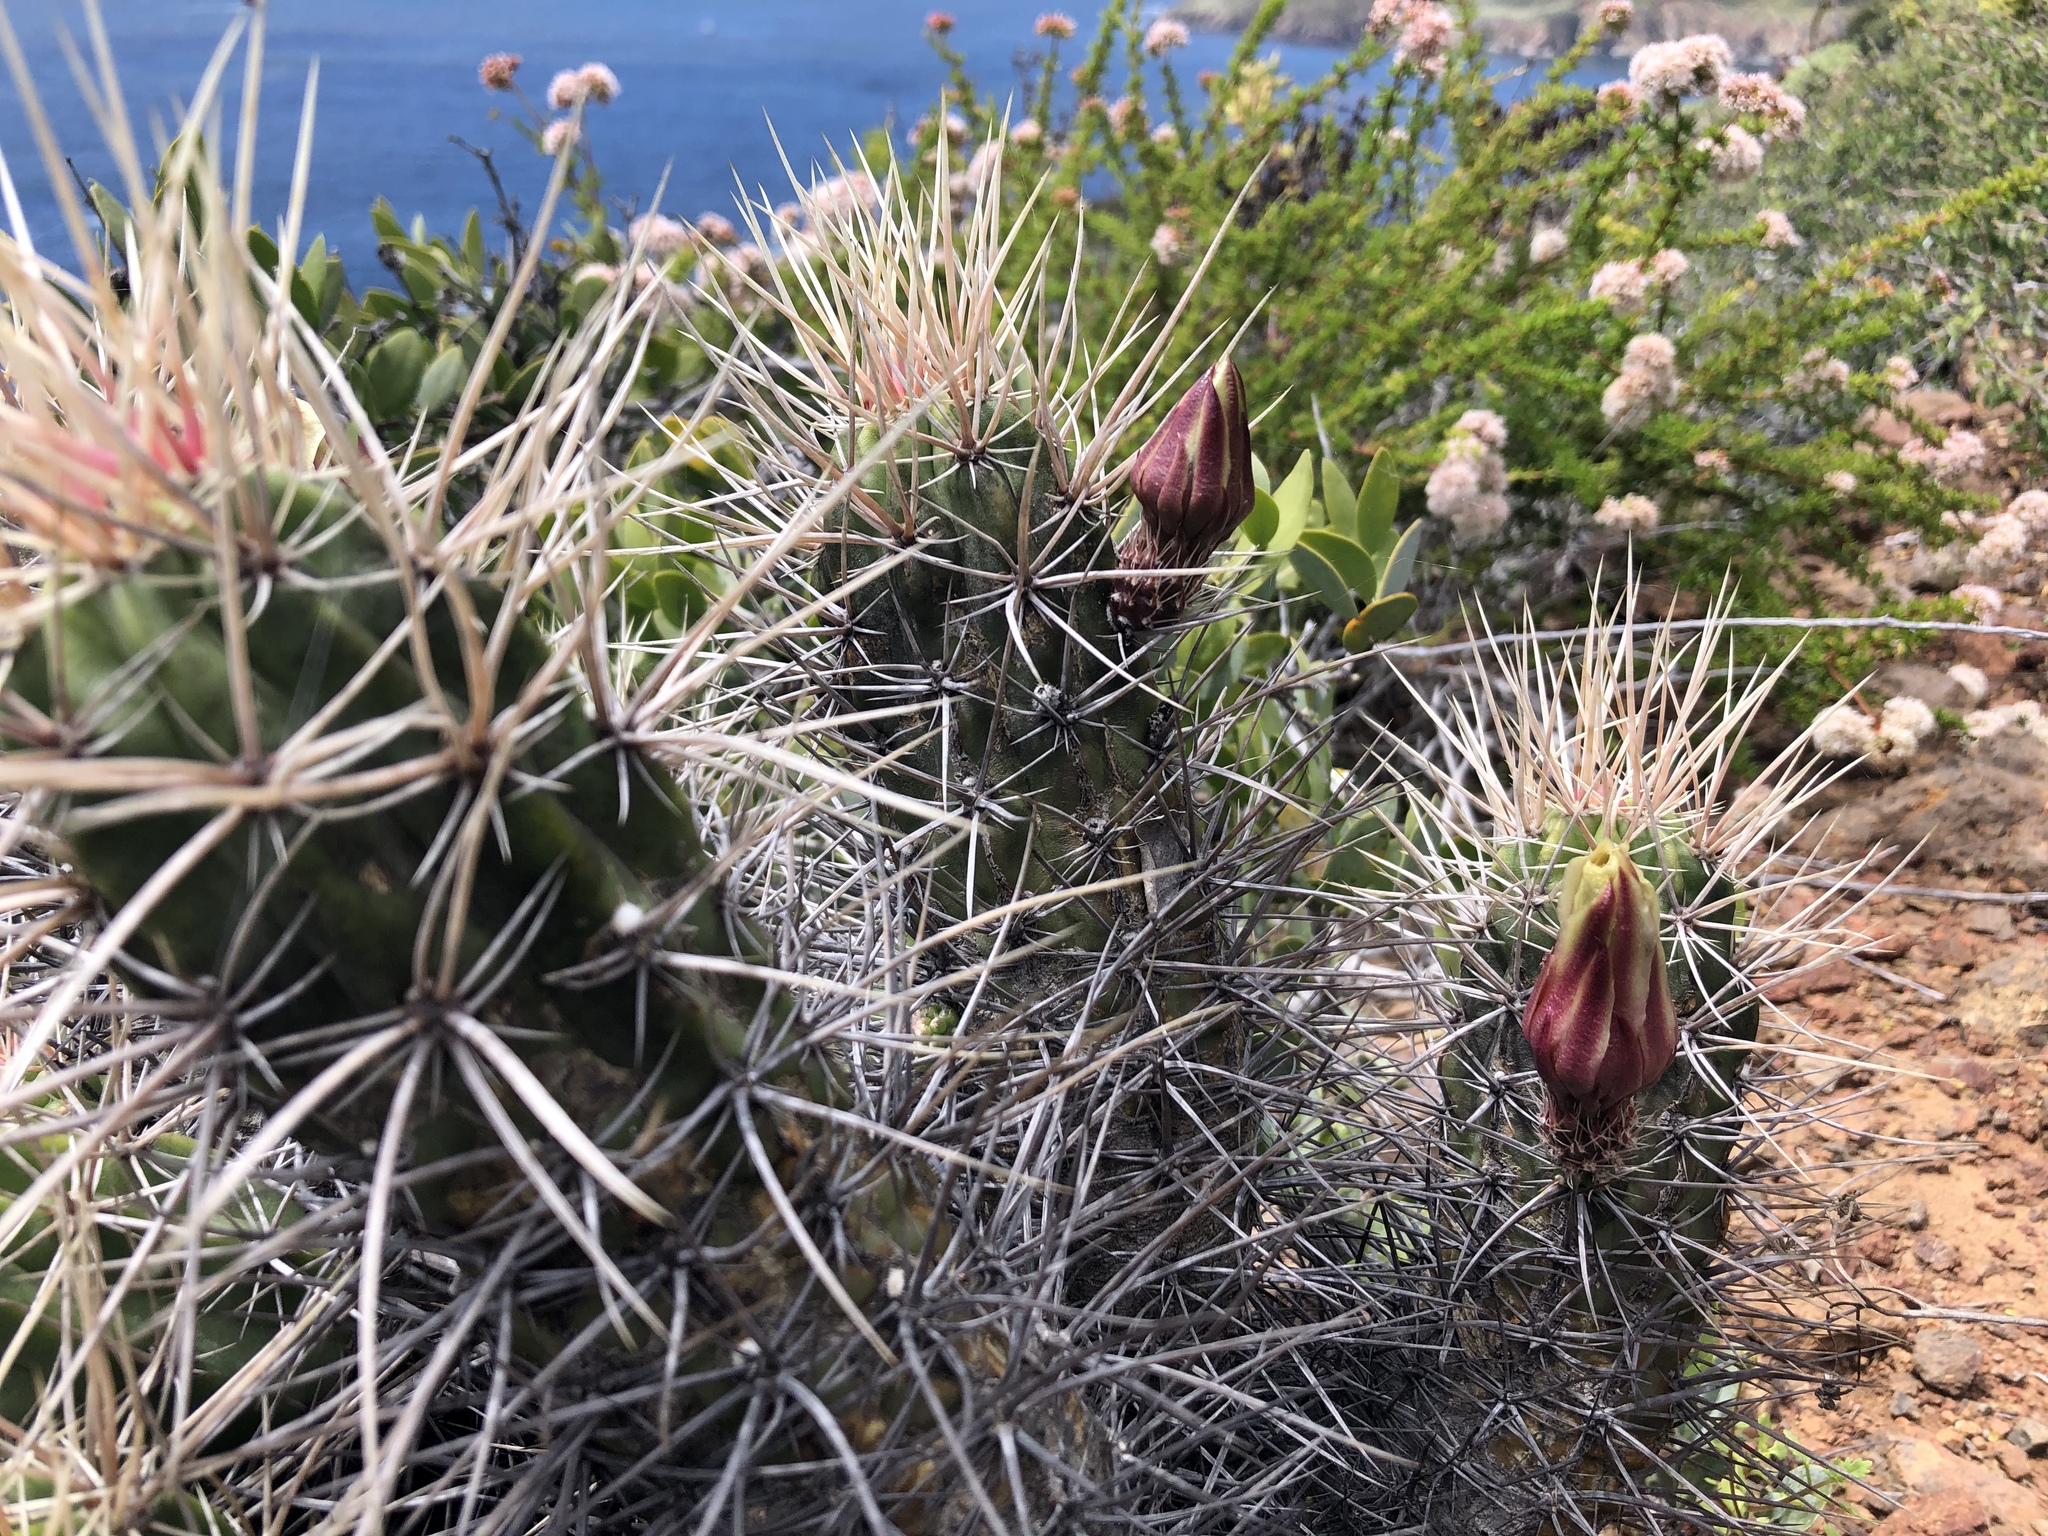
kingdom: Plantae
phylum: Tracheophyta
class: Magnoliopsida
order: Caryophyllales
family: Cactaceae
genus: Echinocereus
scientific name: Echinocereus maritimus
